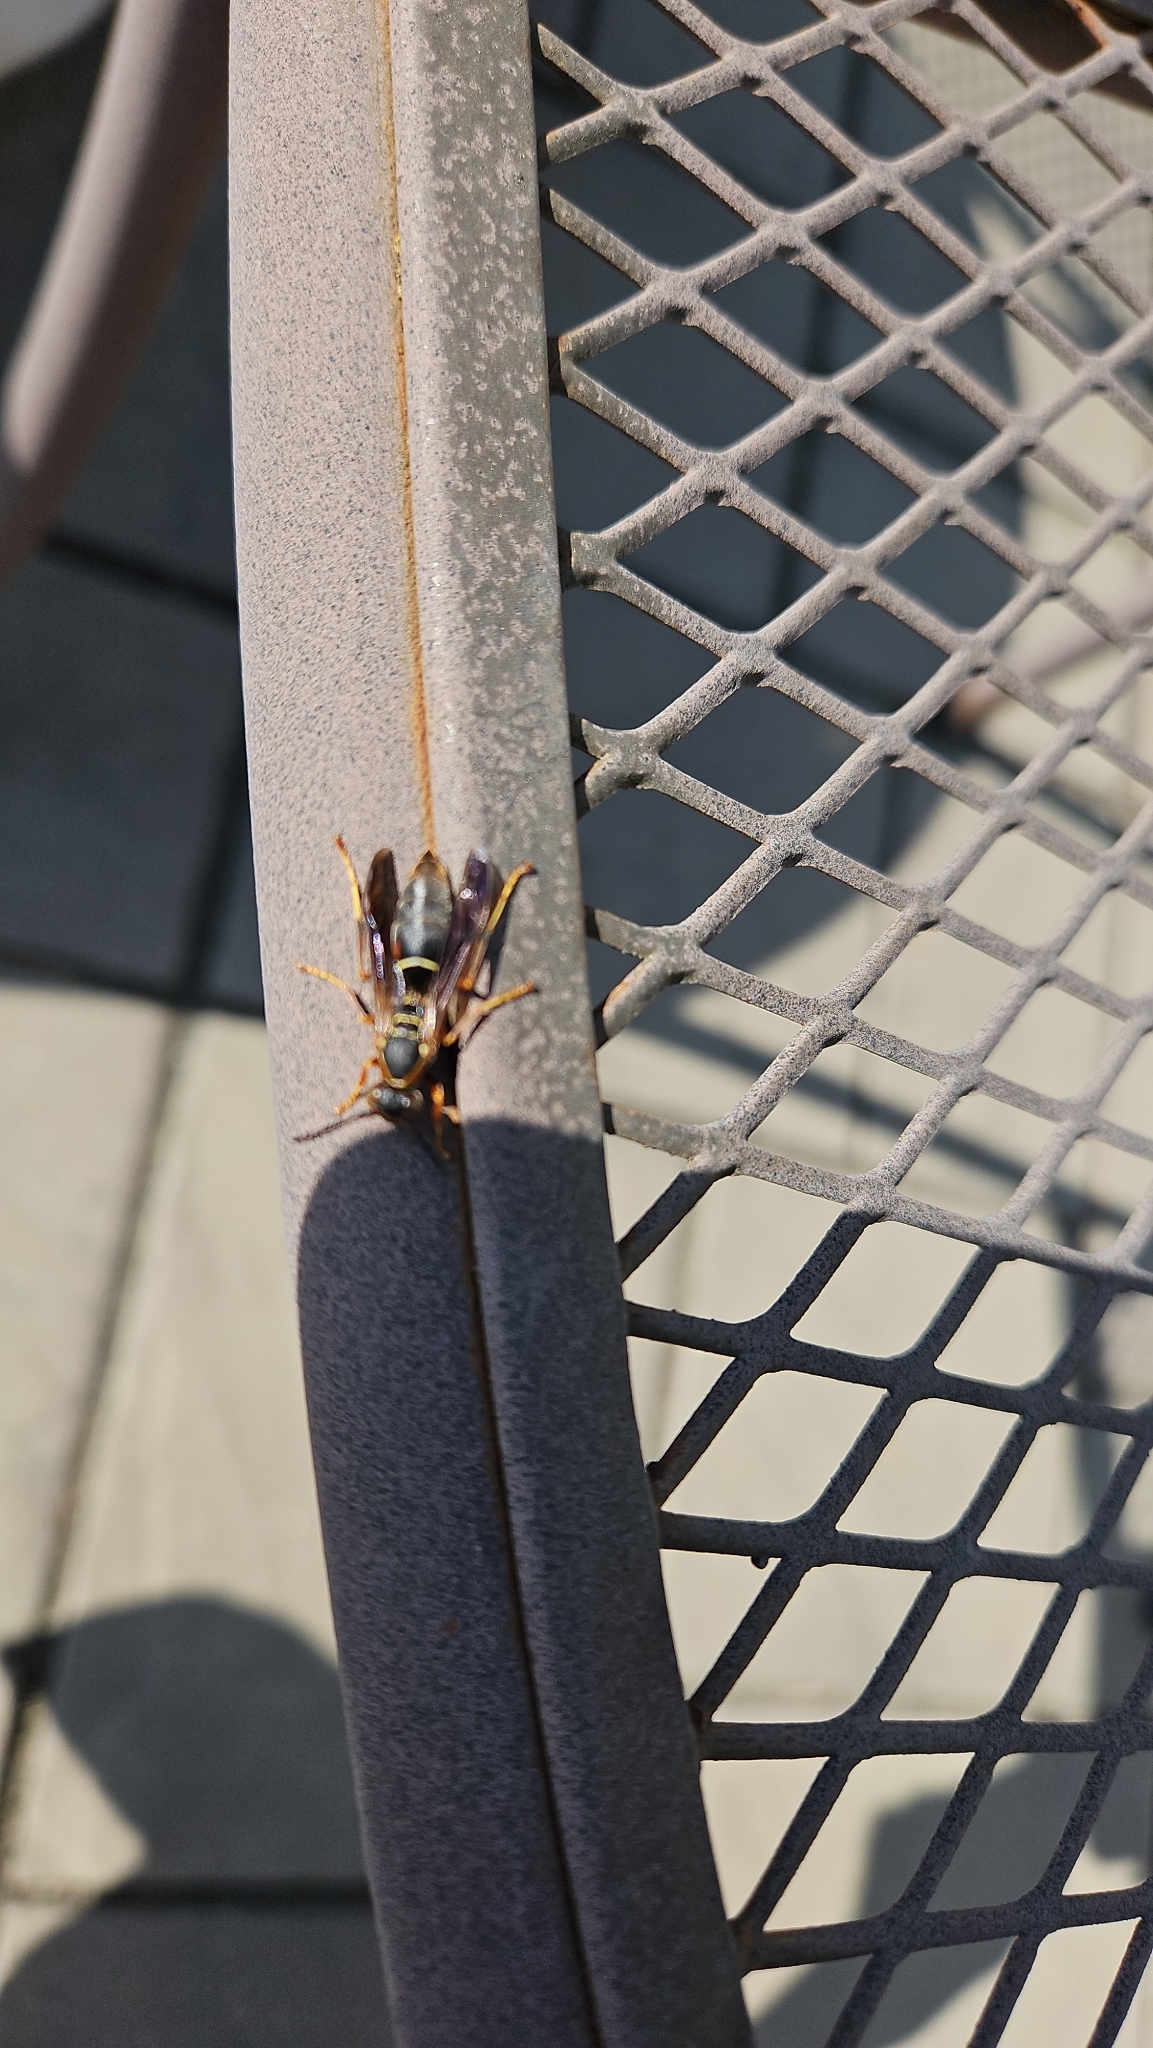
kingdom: Animalia
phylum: Arthropoda
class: Insecta
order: Hymenoptera
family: Eumenidae
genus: Polistes
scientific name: Polistes fuscatus
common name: Dark paper wasp
